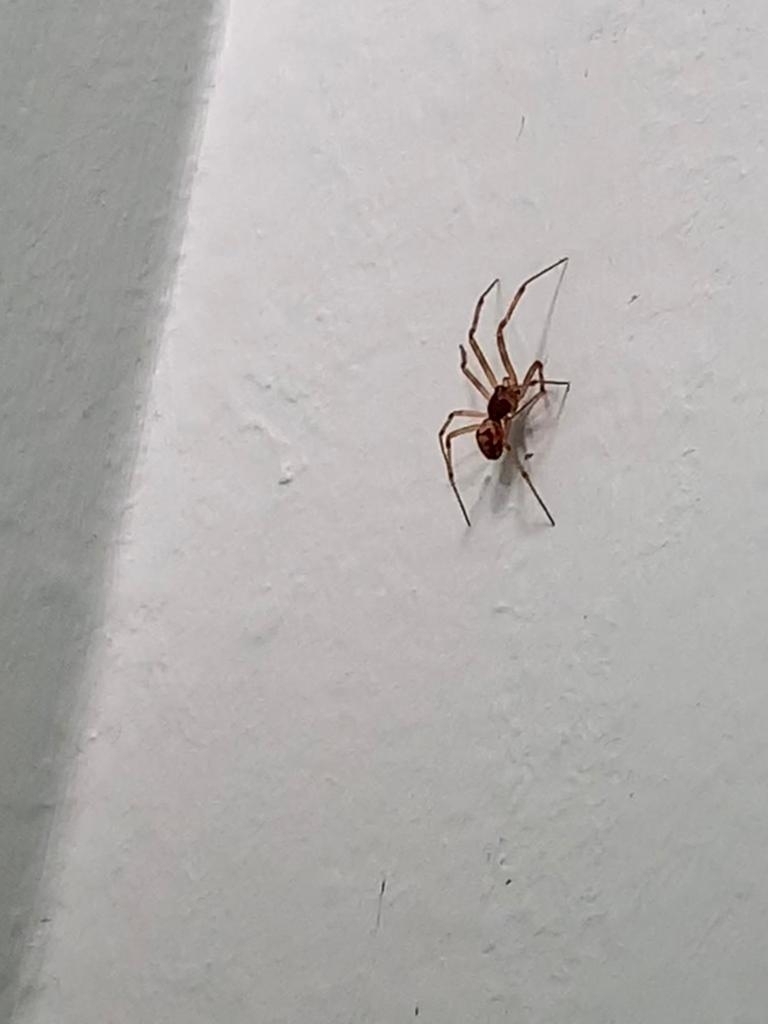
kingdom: Animalia
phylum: Arthropoda
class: Arachnida
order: Araneae
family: Theridiidae
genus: Steatoda
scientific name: Steatoda triangulosa
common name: Triangulate bud spider
